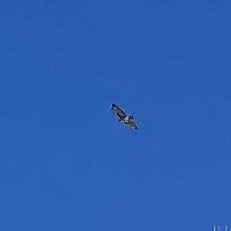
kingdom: Animalia
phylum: Chordata
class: Aves
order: Accipitriformes
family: Accipitridae
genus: Buteo
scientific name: Buteo jamaicensis
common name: Red-tailed hawk
